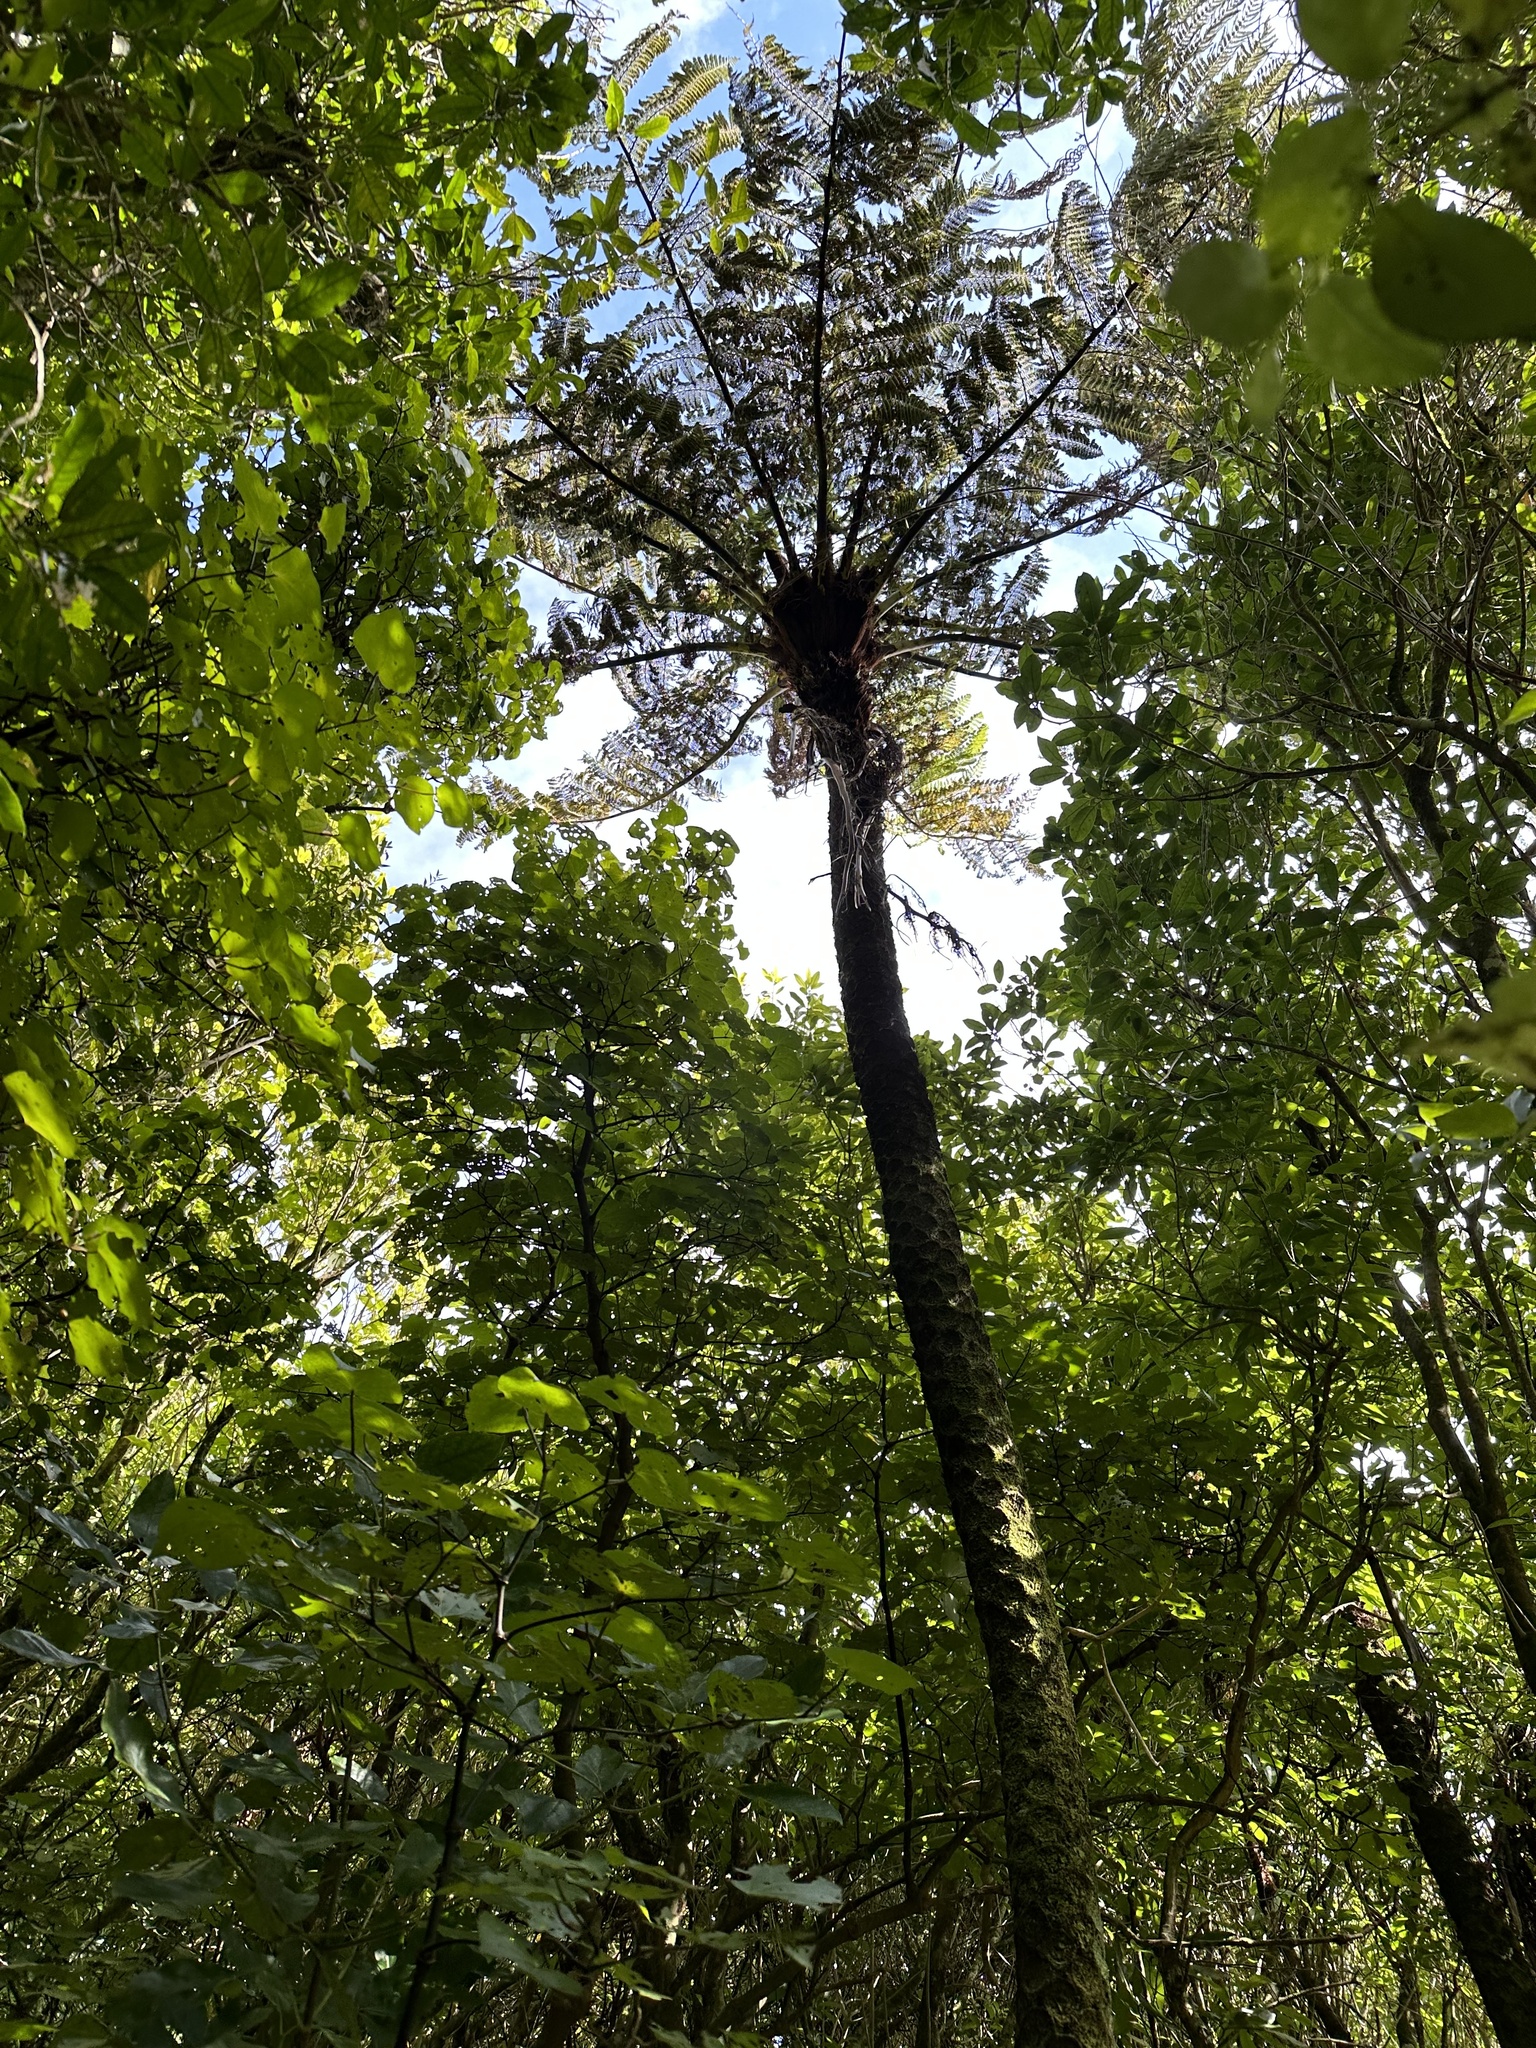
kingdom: Plantae
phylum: Tracheophyta
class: Polypodiopsida
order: Cyatheales
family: Cyatheaceae
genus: Sphaeropteris
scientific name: Sphaeropteris medullaris
